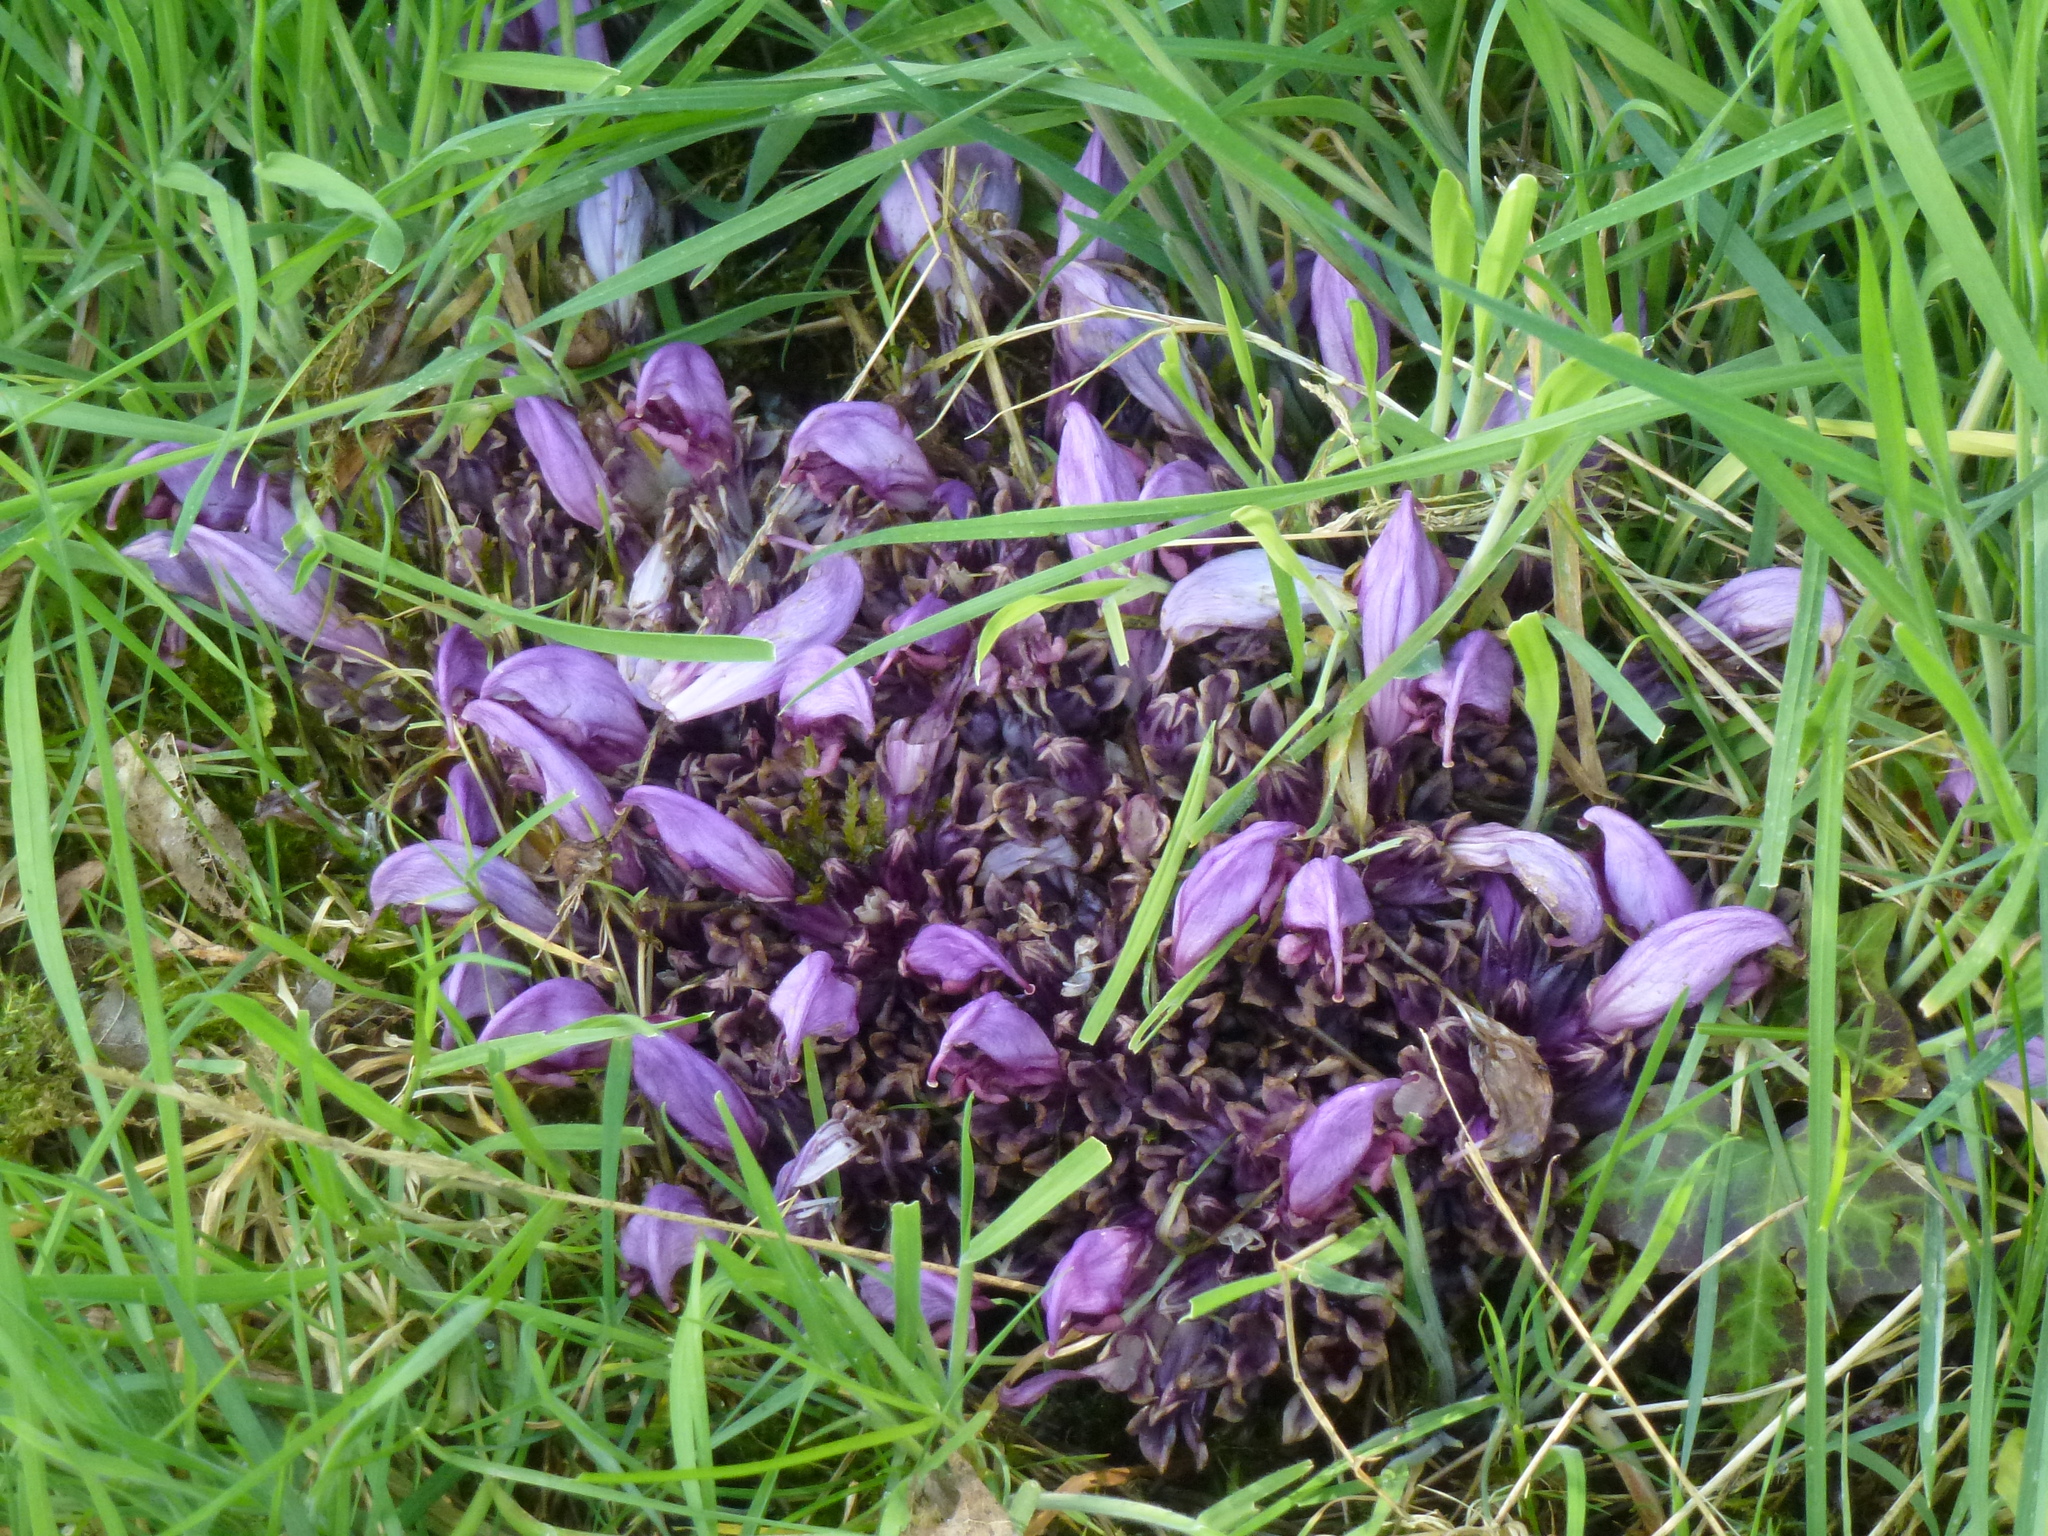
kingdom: Plantae
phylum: Tracheophyta
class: Magnoliopsida
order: Lamiales
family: Orobanchaceae
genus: Lathraea
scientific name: Lathraea clandestina
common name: Purple toothwort
